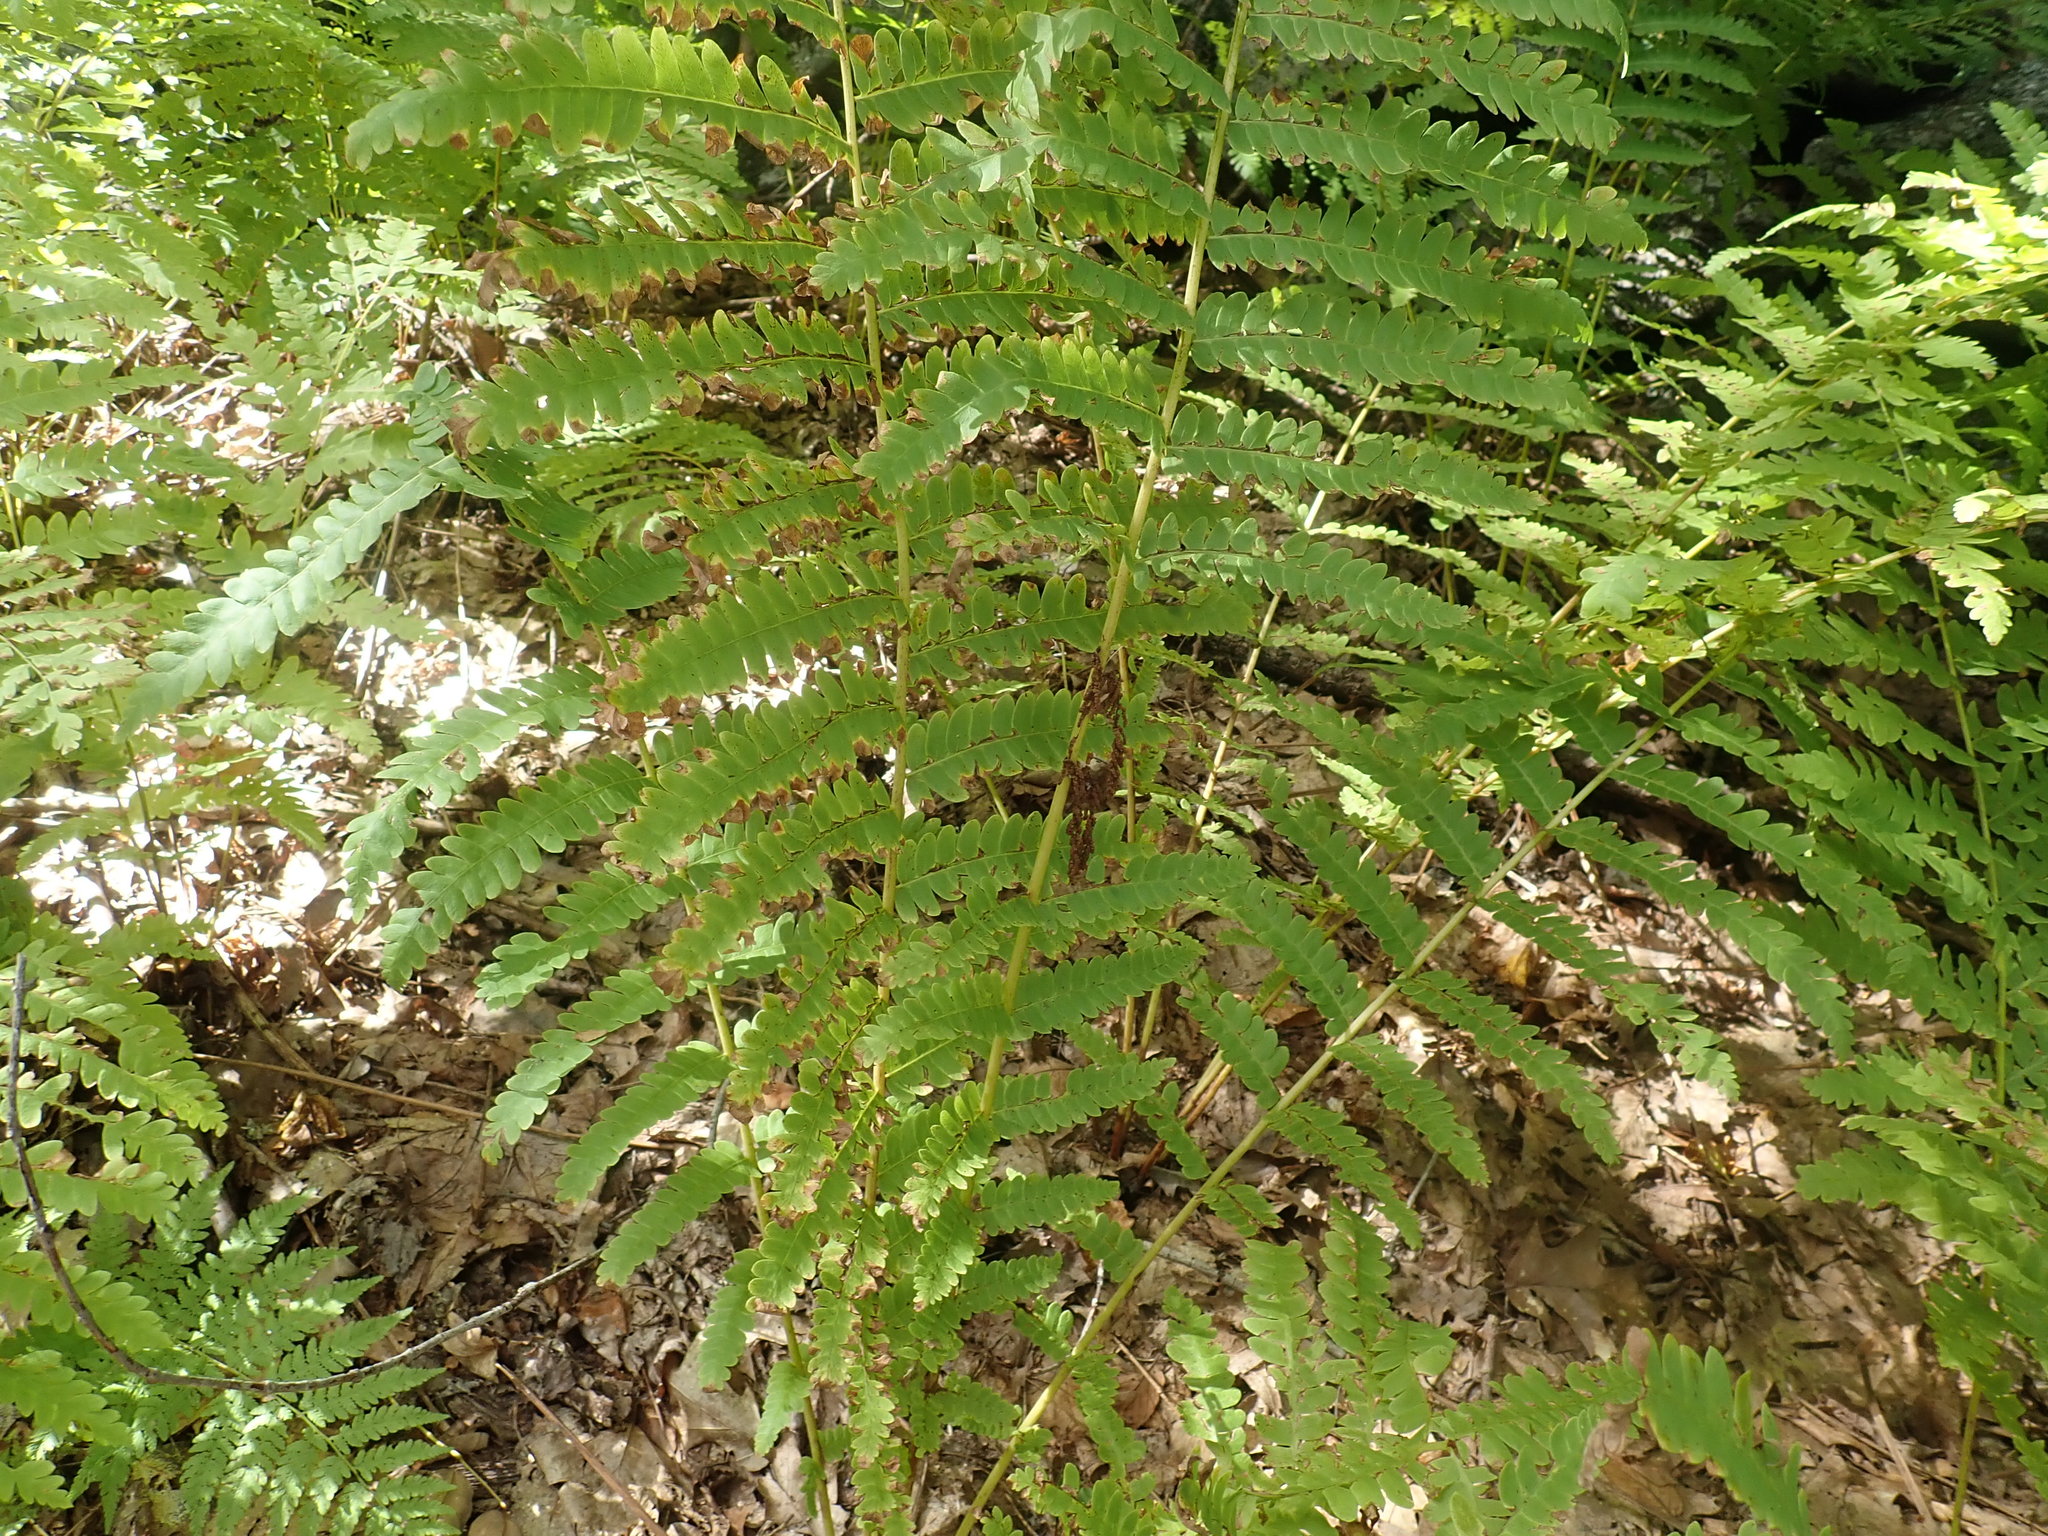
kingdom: Plantae
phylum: Tracheophyta
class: Polypodiopsida
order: Osmundales
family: Osmundaceae
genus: Claytosmunda
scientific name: Claytosmunda claytoniana
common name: Clayton's fern
